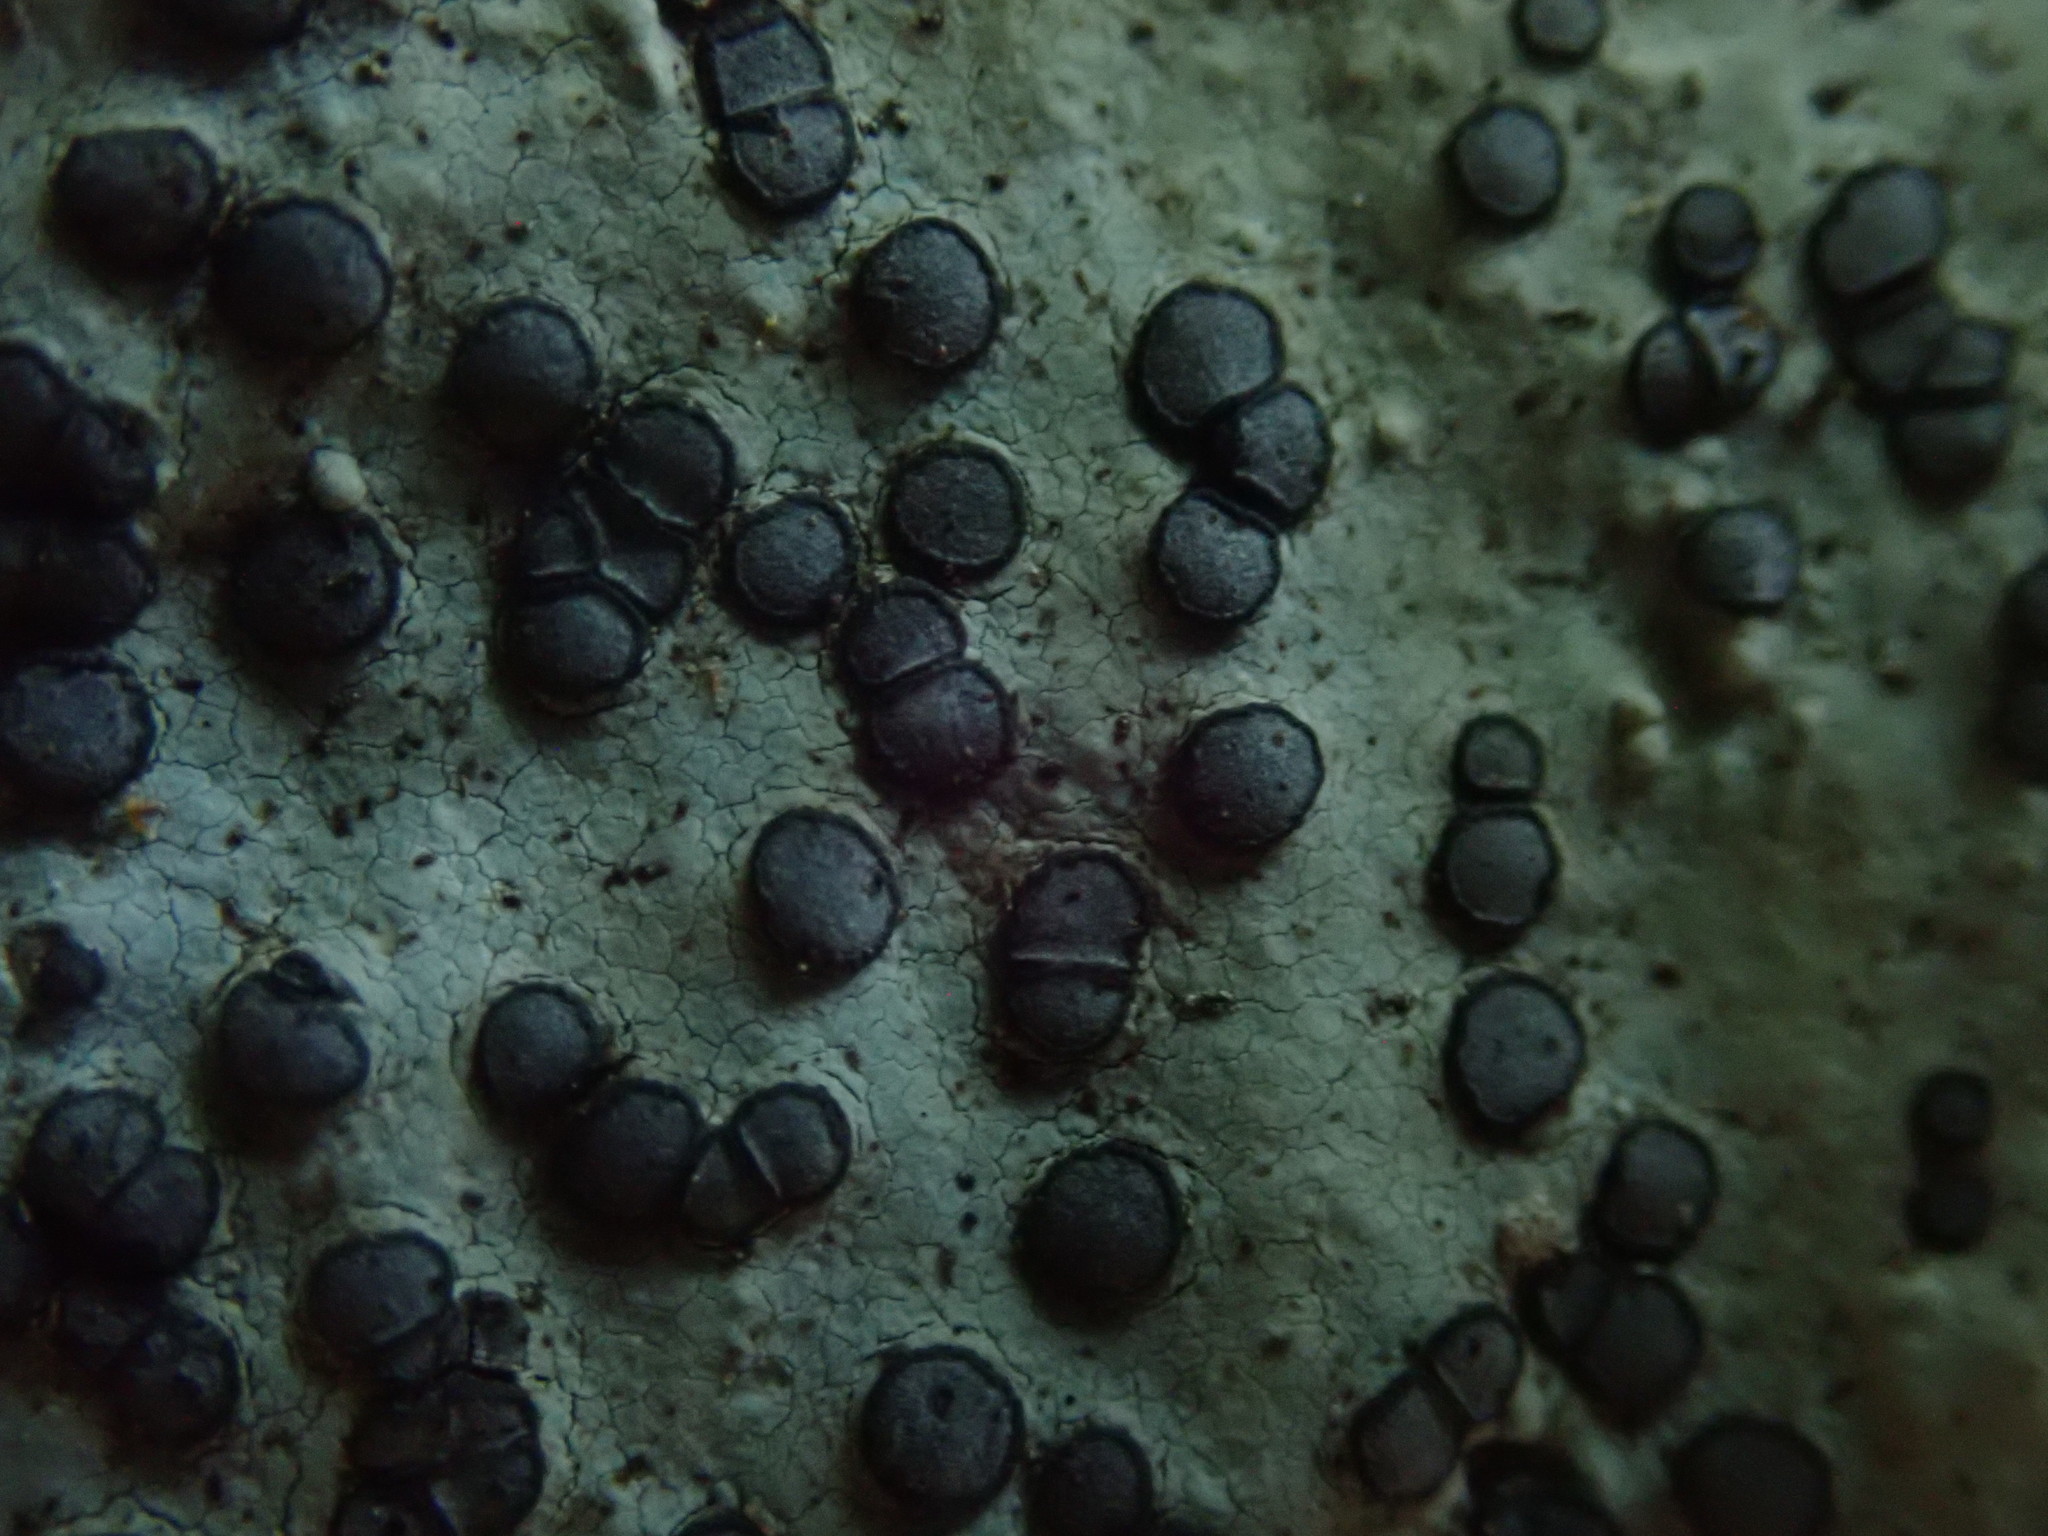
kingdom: Fungi
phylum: Ascomycota
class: Lecanoromycetes
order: Lecideales
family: Lecideaceae
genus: Porpidia
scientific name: Porpidia albocaerulescens
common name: Smokey-eyed boulder lichen
